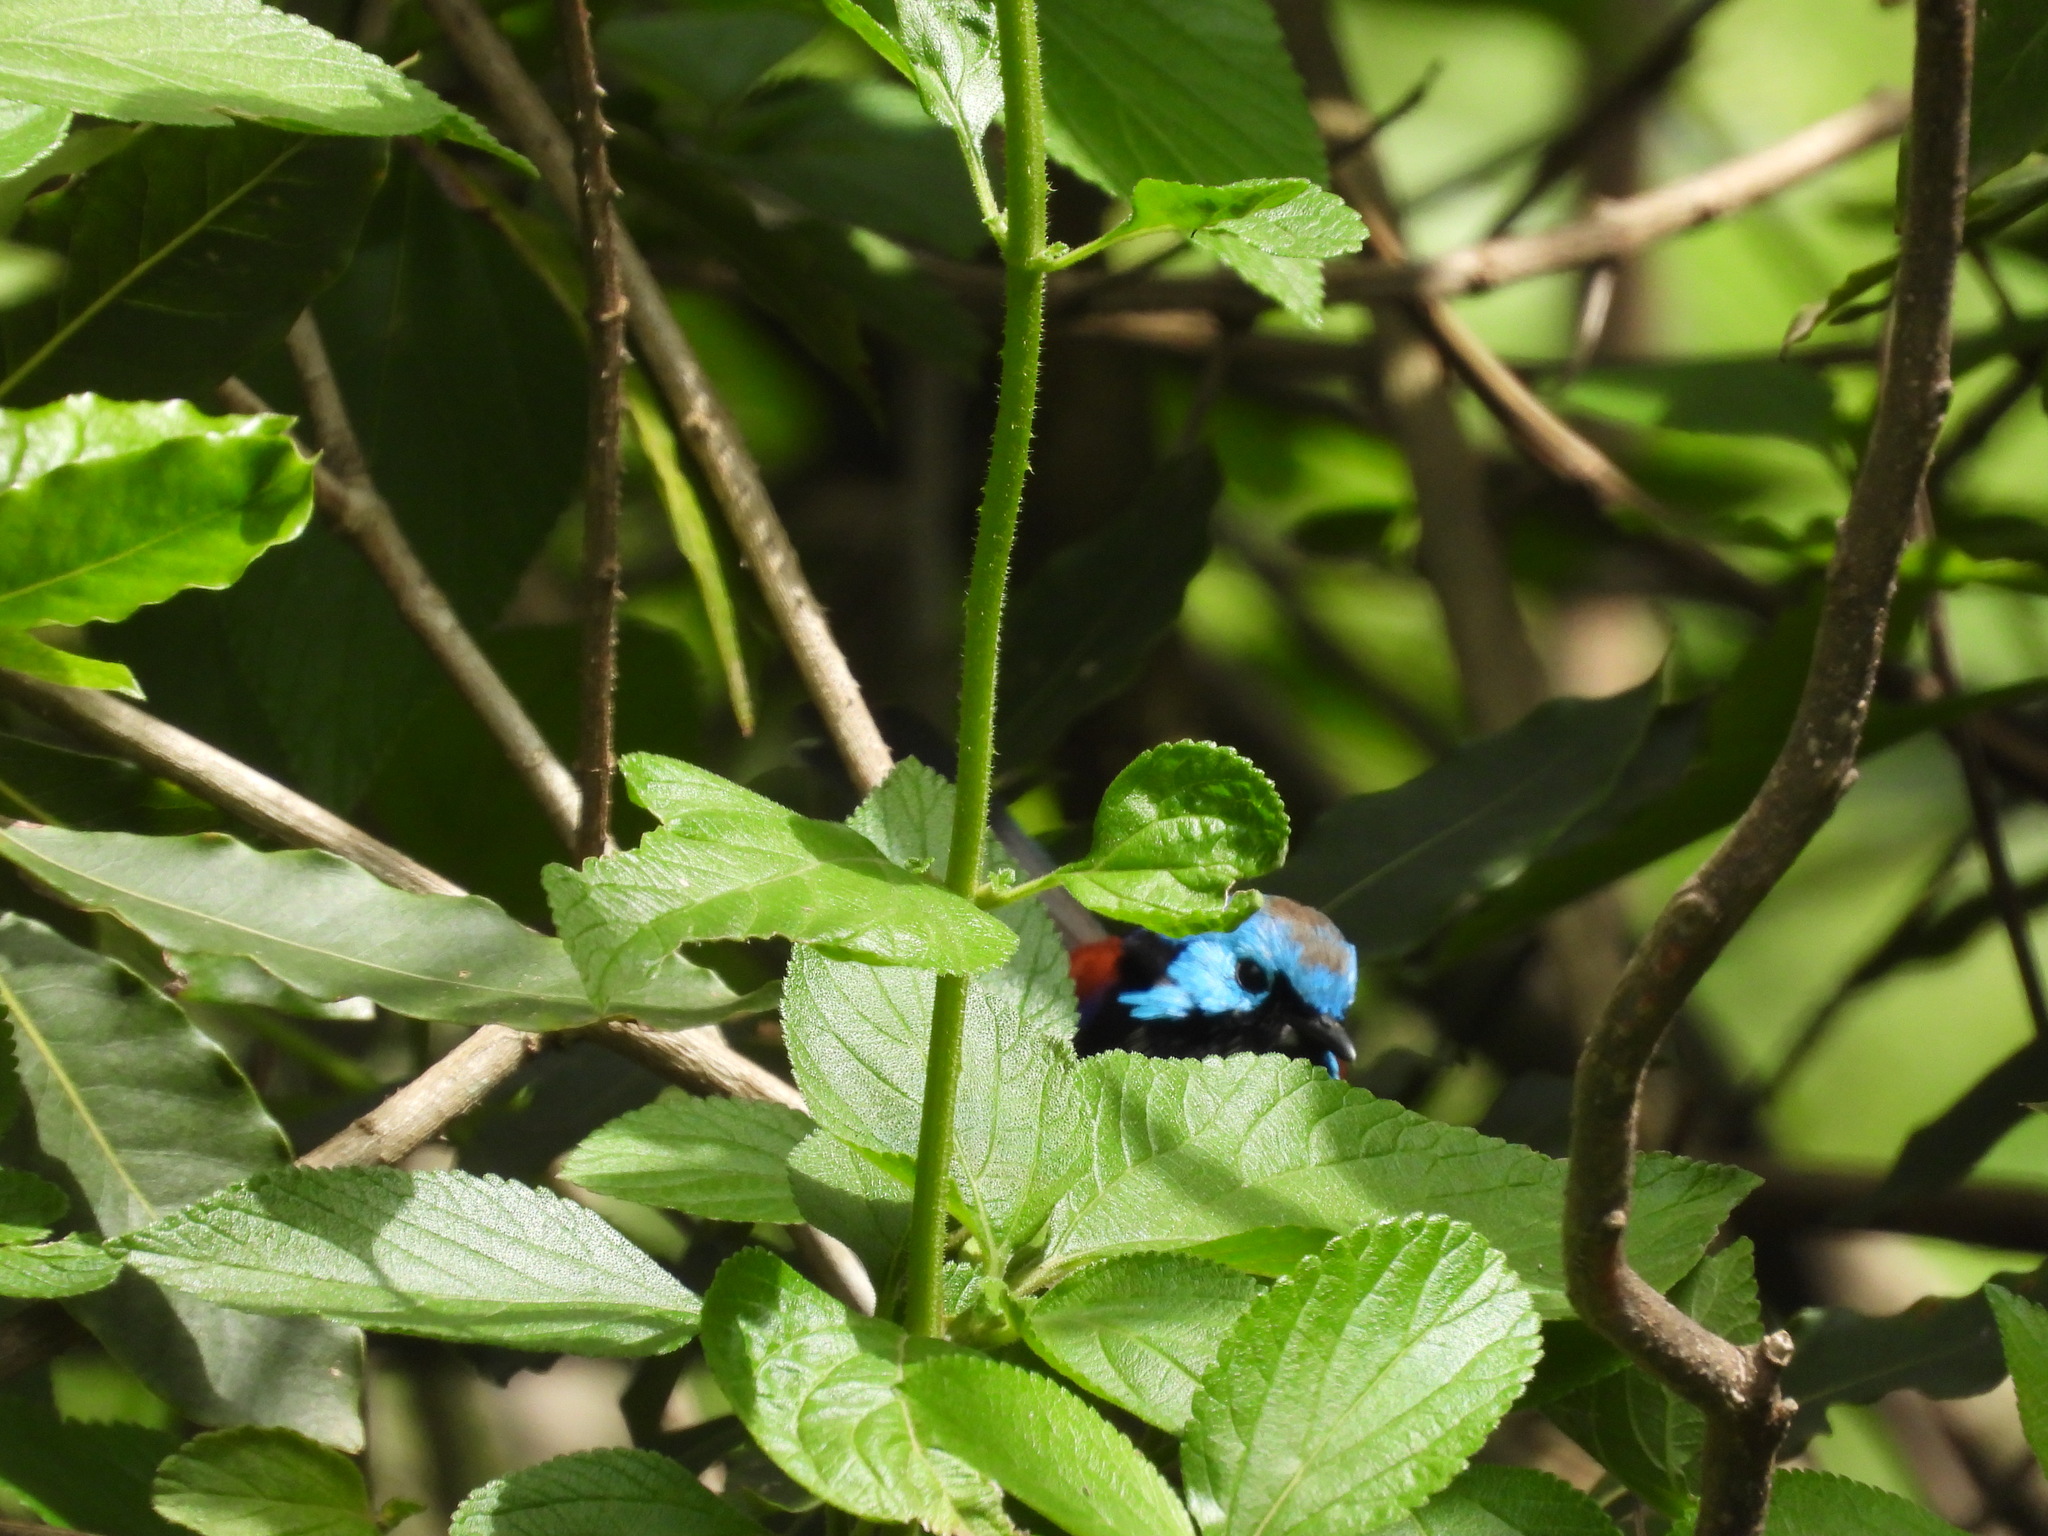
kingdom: Animalia
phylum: Chordata
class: Aves
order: Passeriformes
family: Maluridae
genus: Malurus
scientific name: Malurus lamberti
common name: Variegated fairywren
